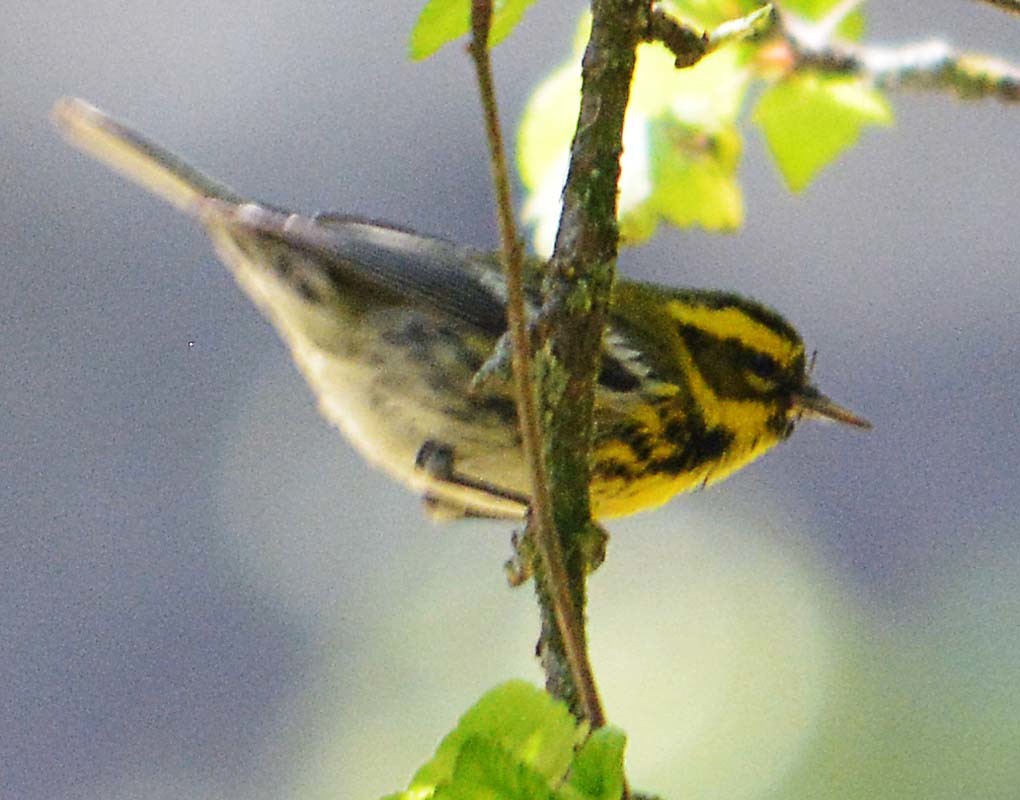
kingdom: Animalia
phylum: Chordata
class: Aves
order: Passeriformes
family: Parulidae
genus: Setophaga
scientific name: Setophaga townsendi
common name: Townsend's warbler
